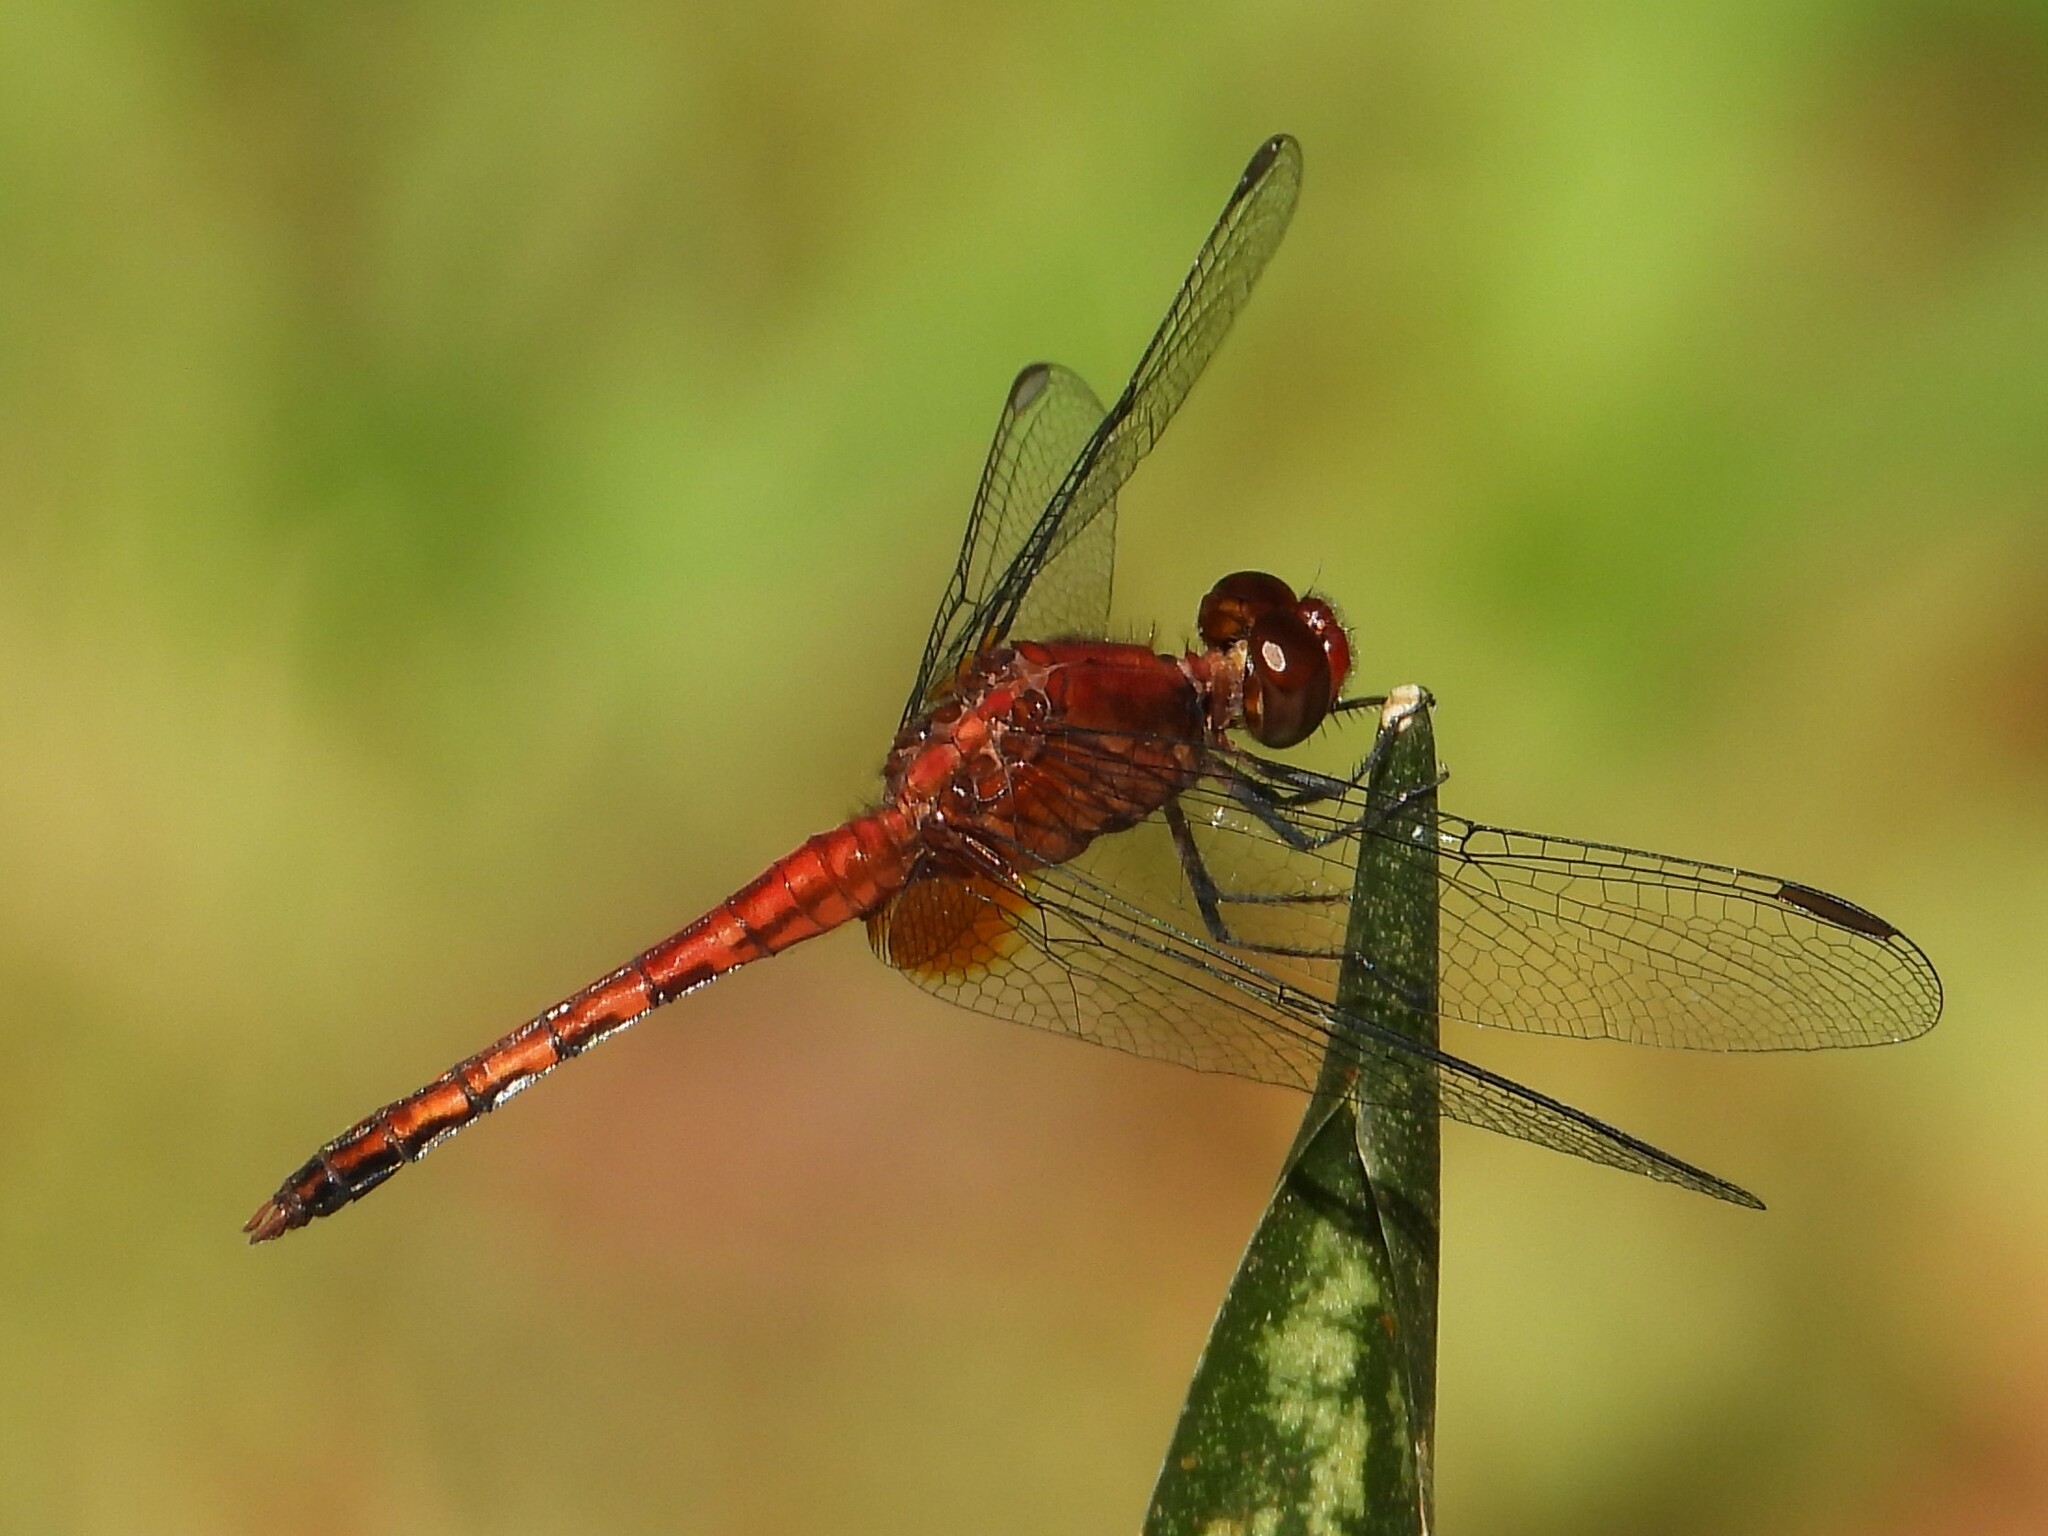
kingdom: Animalia
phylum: Arthropoda
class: Insecta
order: Odonata
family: Libellulidae
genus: Erythrodiplax
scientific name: Erythrodiplax fusca
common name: Red-faced dragonlet
